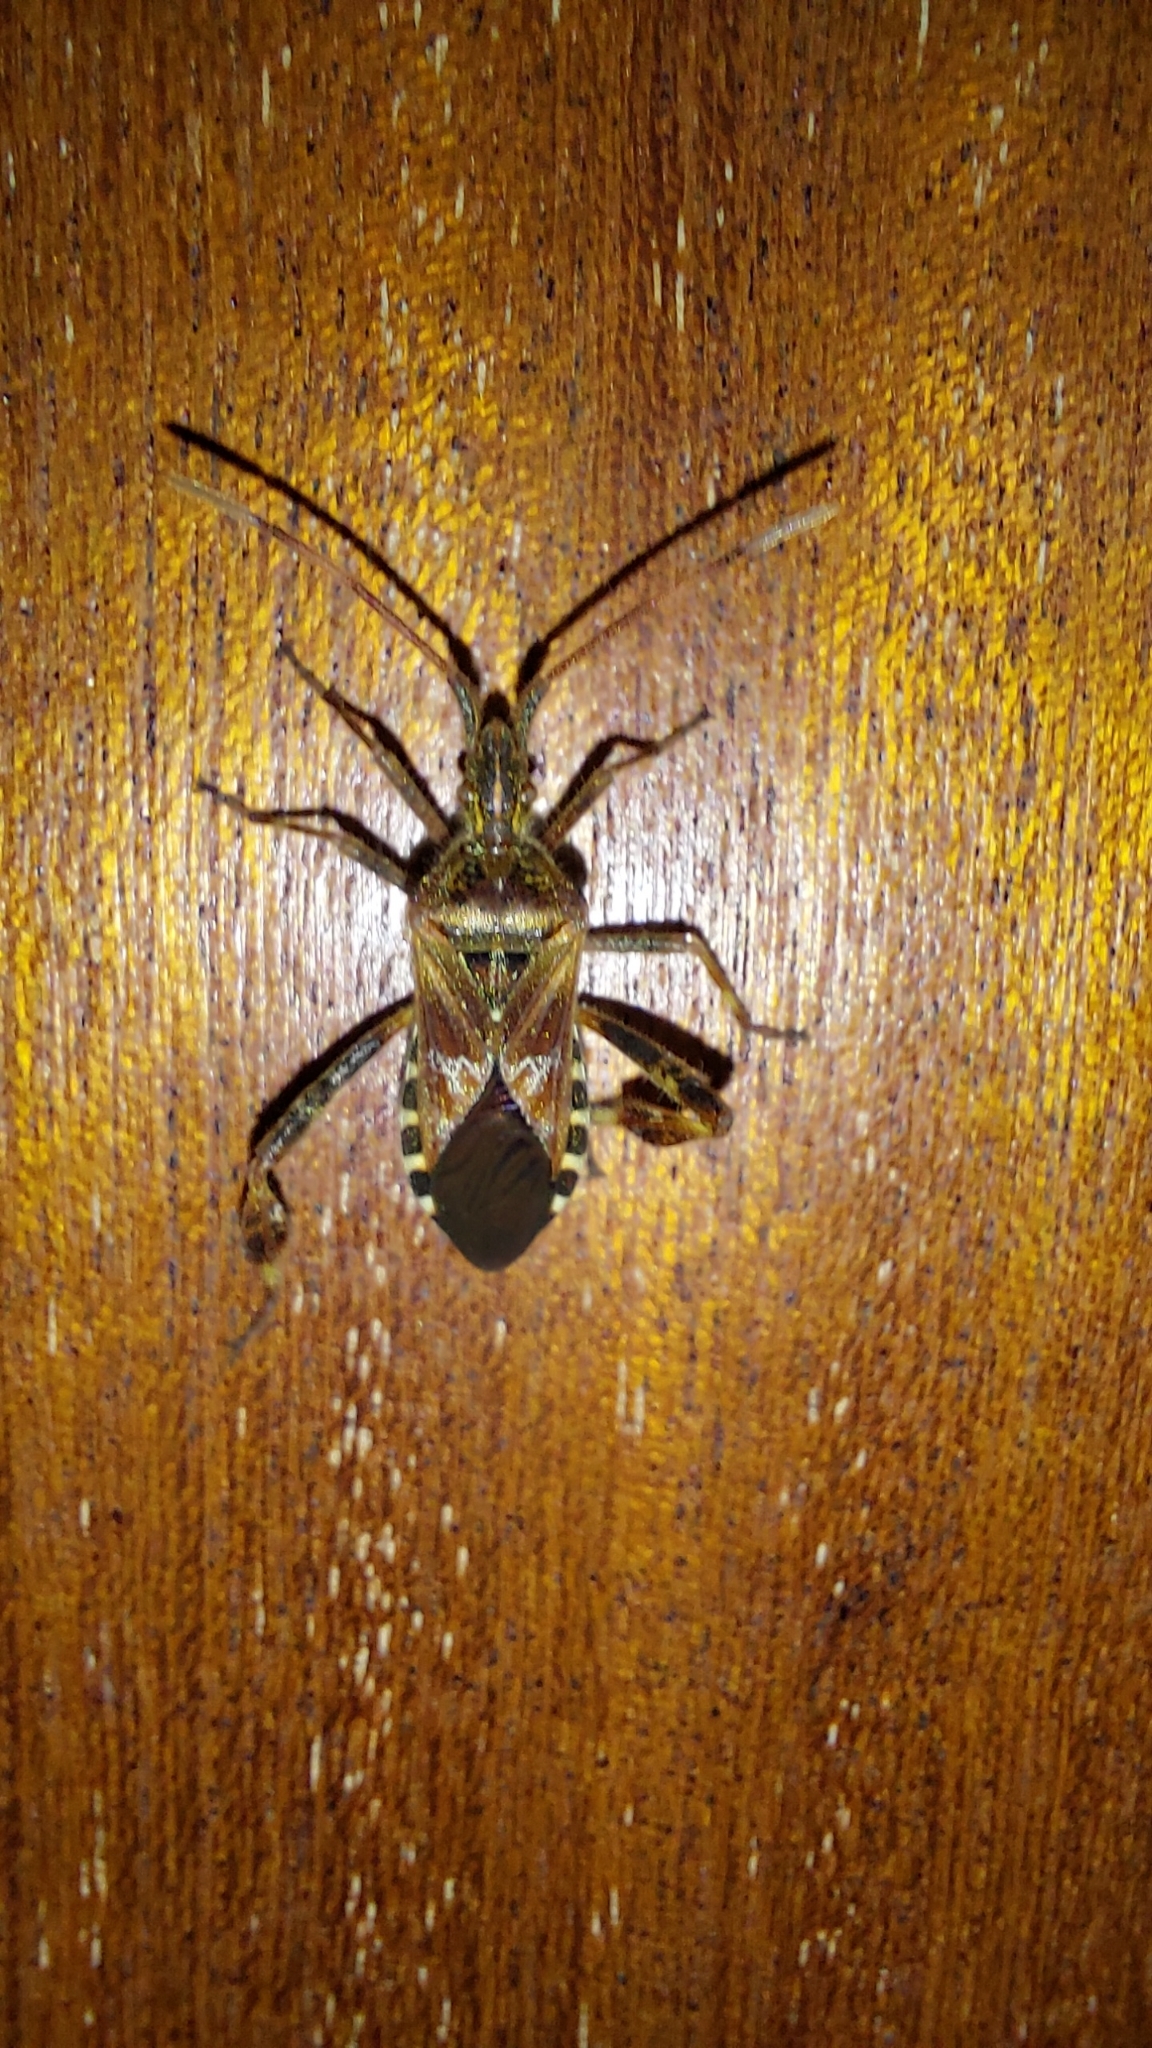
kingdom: Animalia
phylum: Arthropoda
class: Insecta
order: Hemiptera
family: Coreidae
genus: Leptoglossus
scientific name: Leptoglossus occidentalis
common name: Western conifer-seed bug
